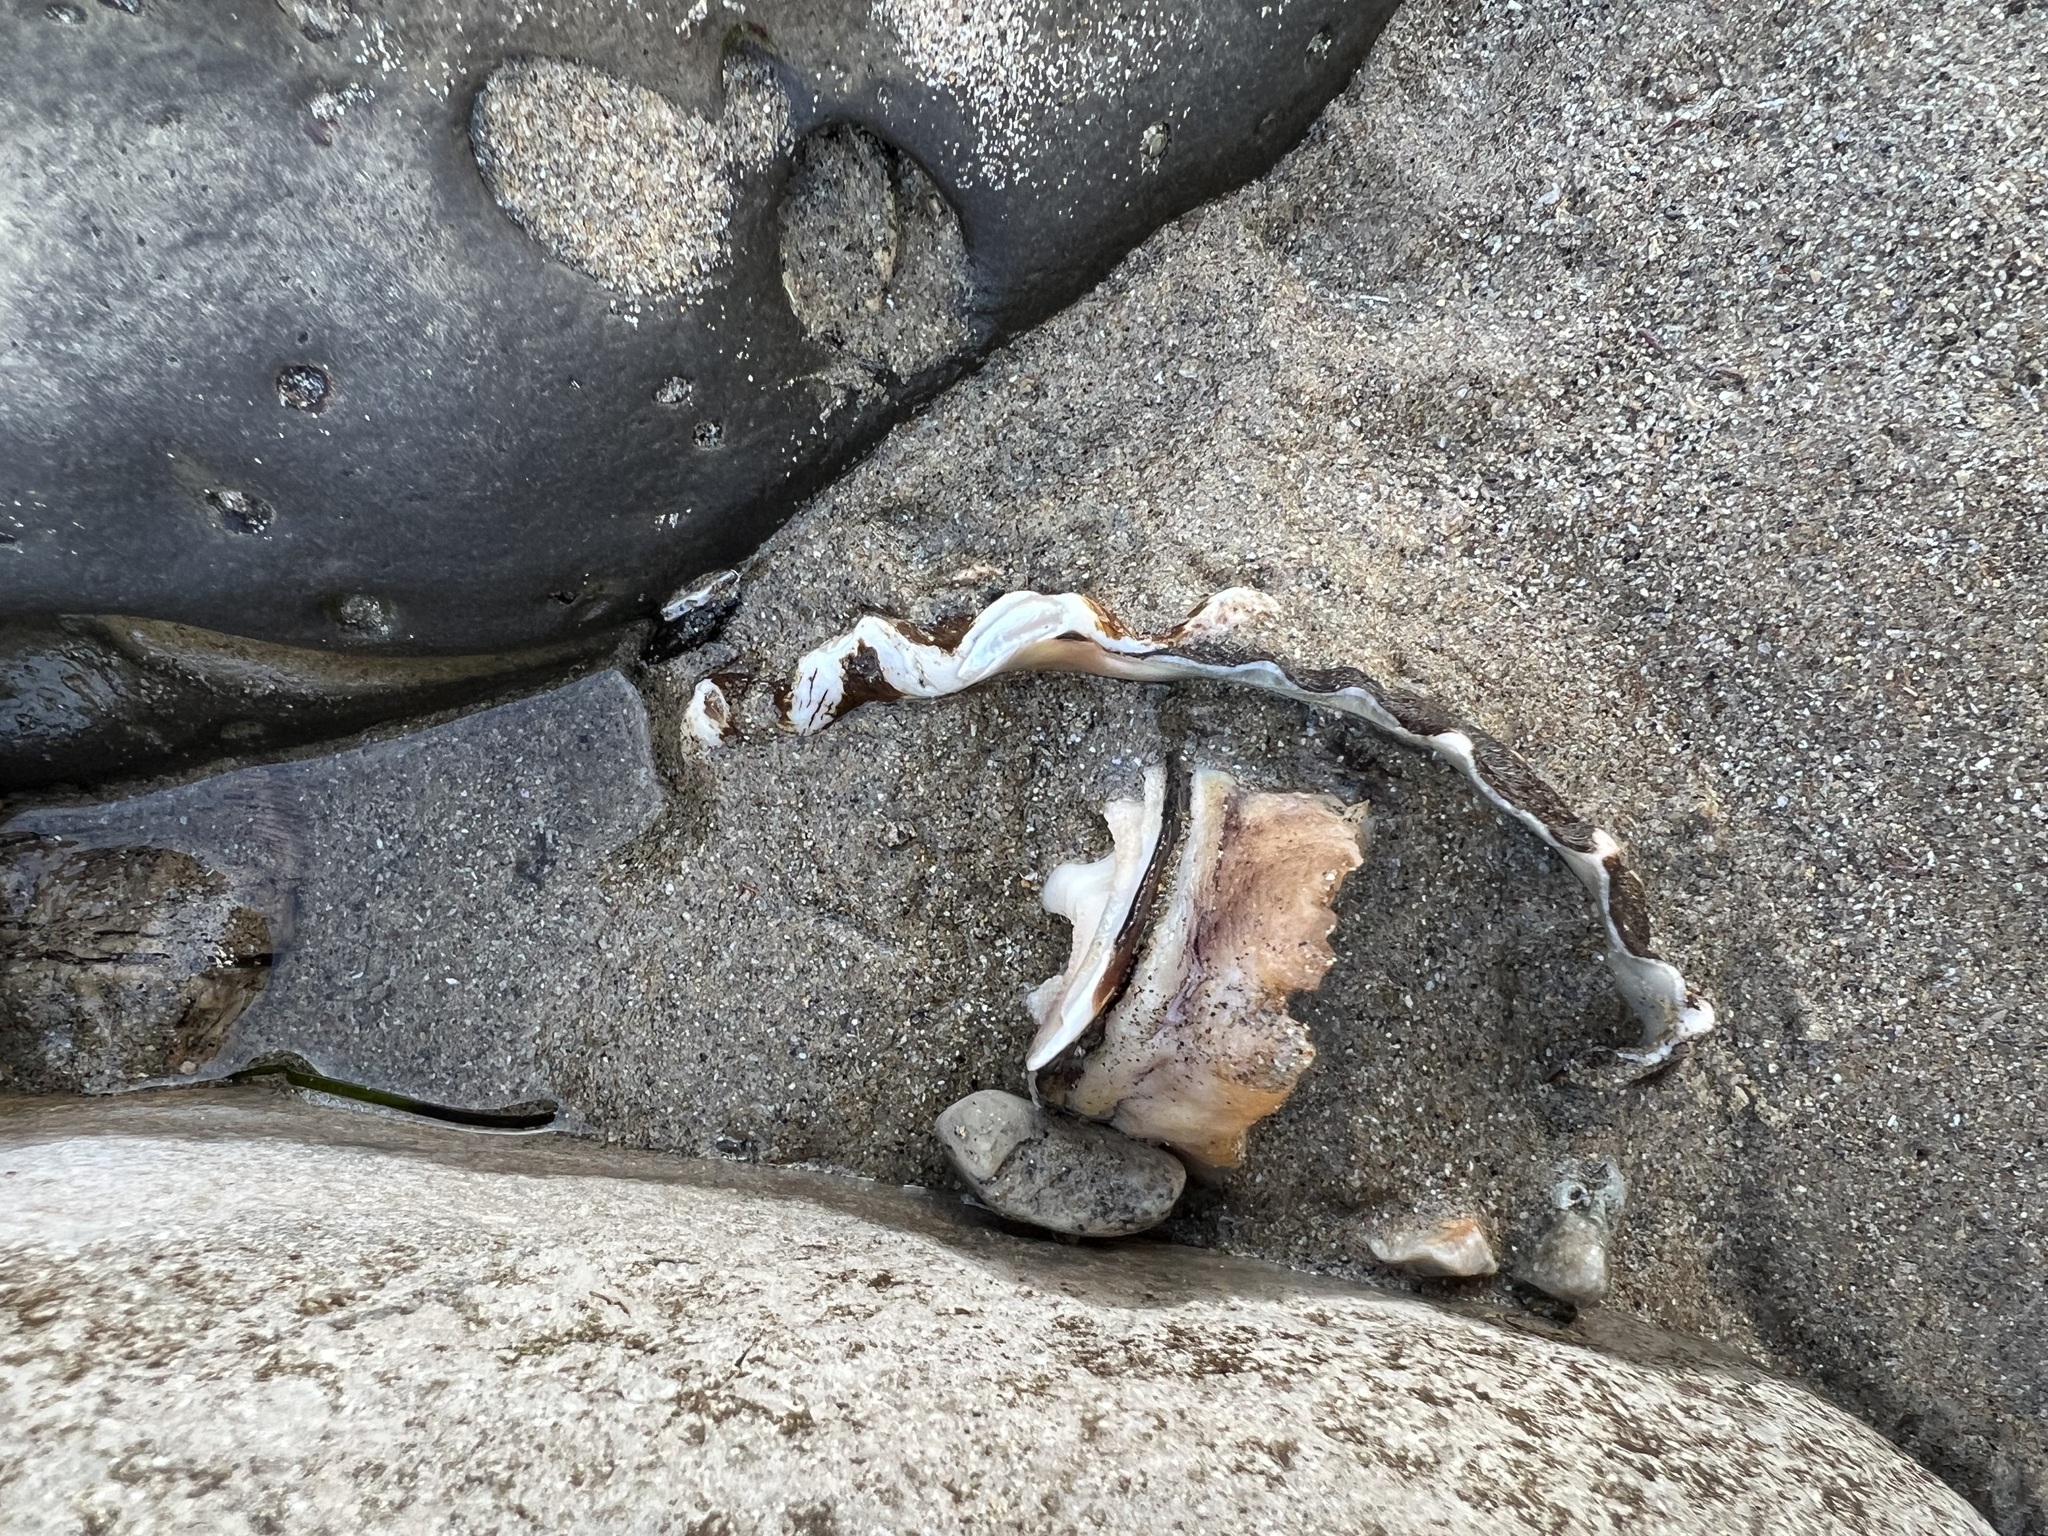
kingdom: Animalia
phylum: Mollusca
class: Gastropoda
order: Trochida
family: Turbinidae
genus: Megastraea
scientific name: Megastraea undosa
